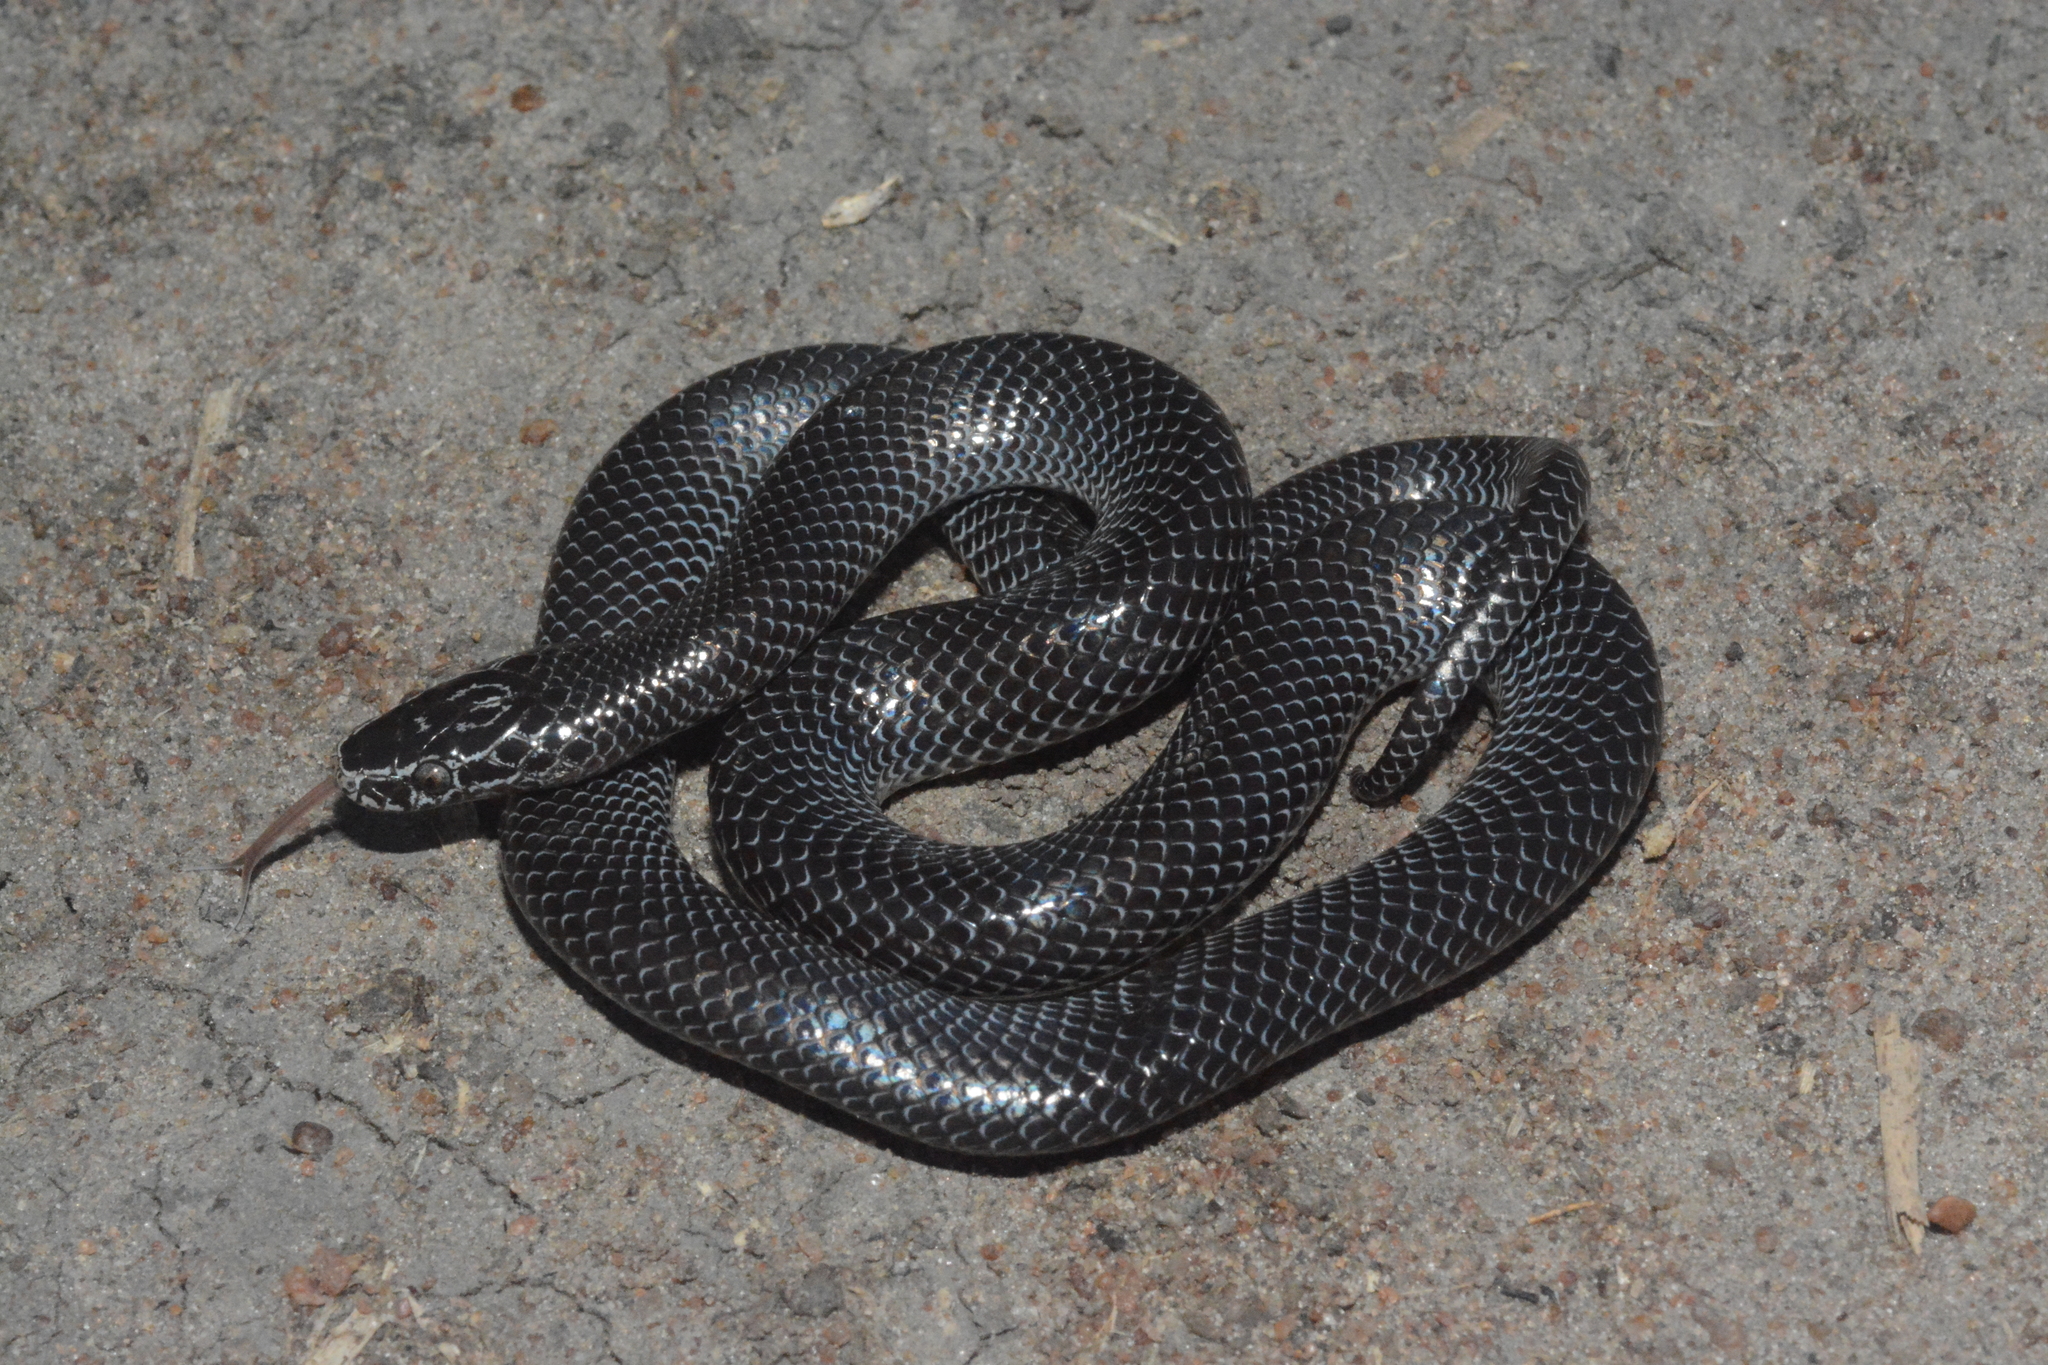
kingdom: Animalia
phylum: Chordata
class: Squamata
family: Lamprophiidae
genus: Lycophidion
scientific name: Lycophidion capense
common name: Cape wolf snake
